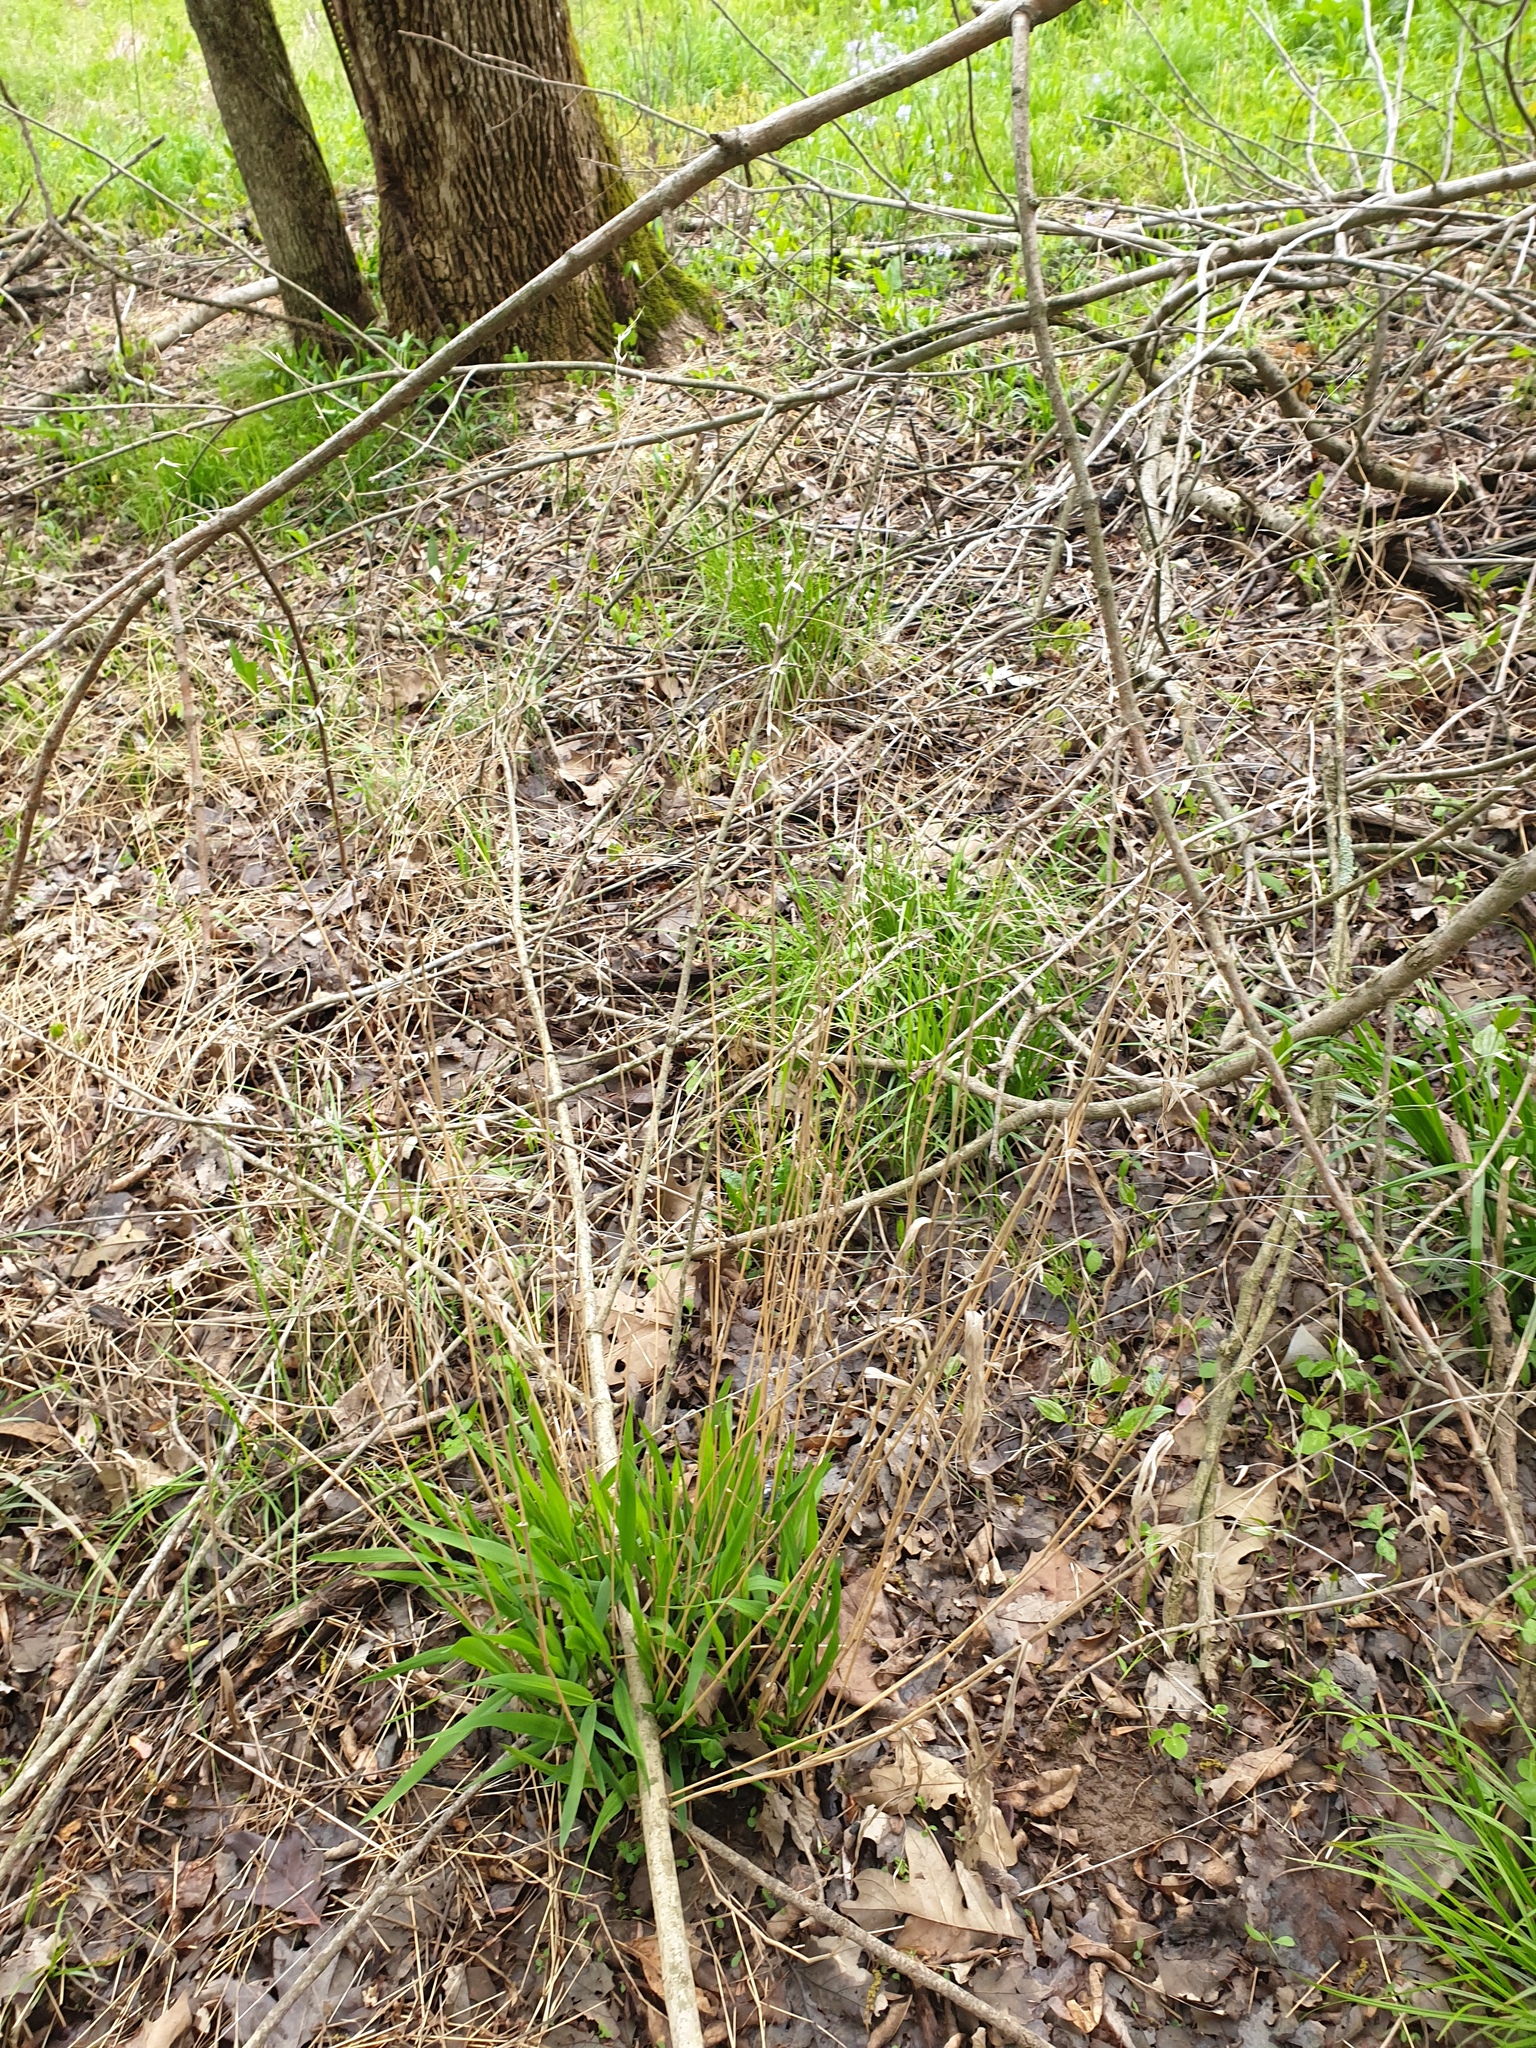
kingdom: Plantae
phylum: Tracheophyta
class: Liliopsida
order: Poales
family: Poaceae
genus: Chasmanthium
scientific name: Chasmanthium latifolium
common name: Broad-leaved chasmanthium
